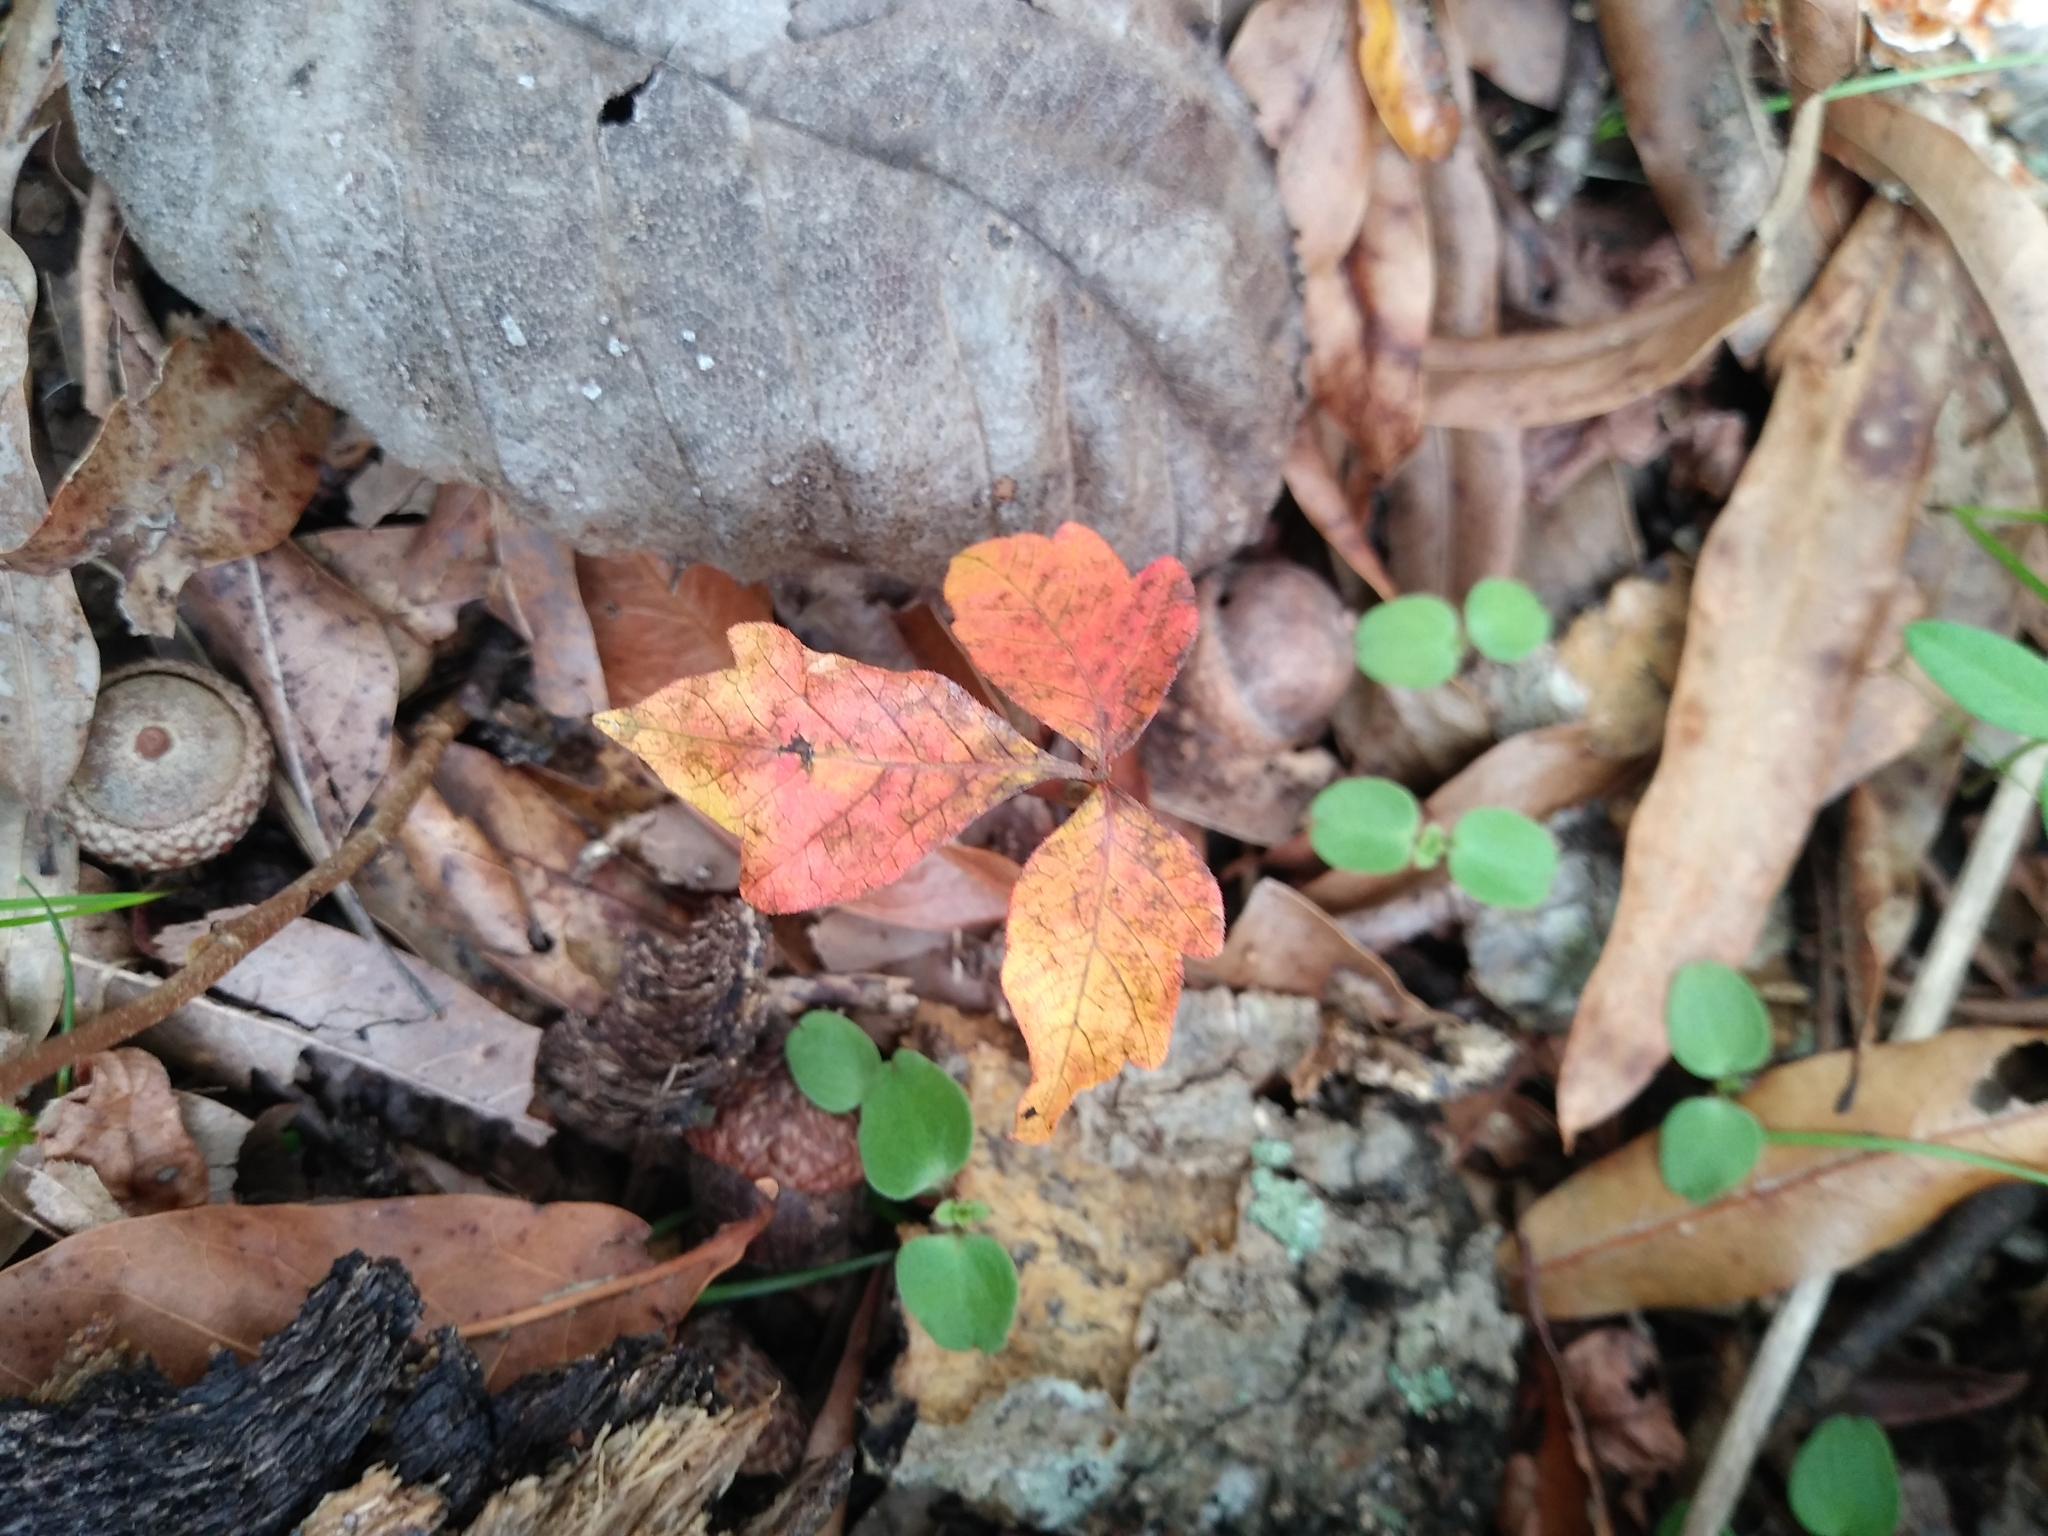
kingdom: Plantae
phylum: Tracheophyta
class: Magnoliopsida
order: Sapindales
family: Anacardiaceae
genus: Toxicodendron
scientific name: Toxicodendron radicans
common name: Poison ivy
